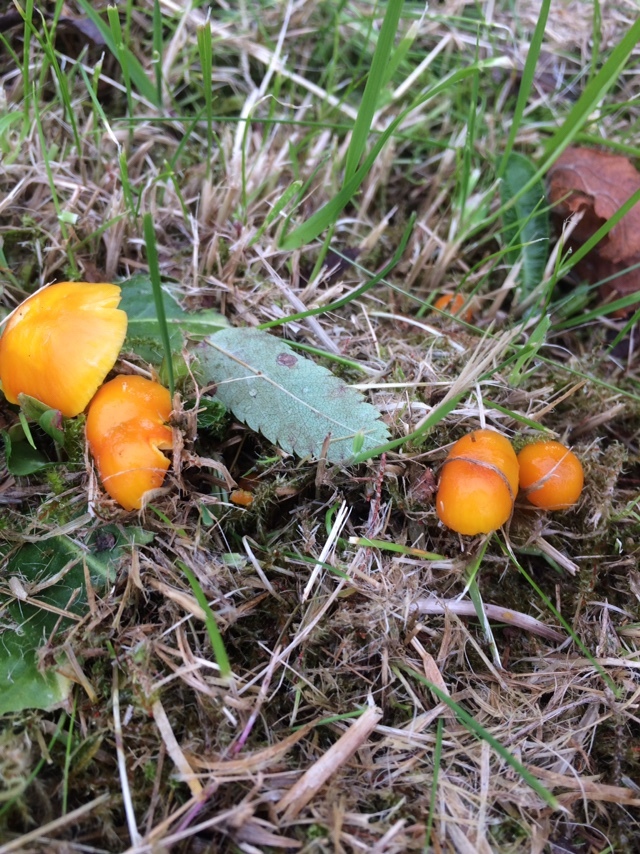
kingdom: Fungi
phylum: Basidiomycota
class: Agaricomycetes
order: Agaricales
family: Hygrophoraceae
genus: Hygrocybe
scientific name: Hygrocybe ceracea
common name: Butter waxcap
